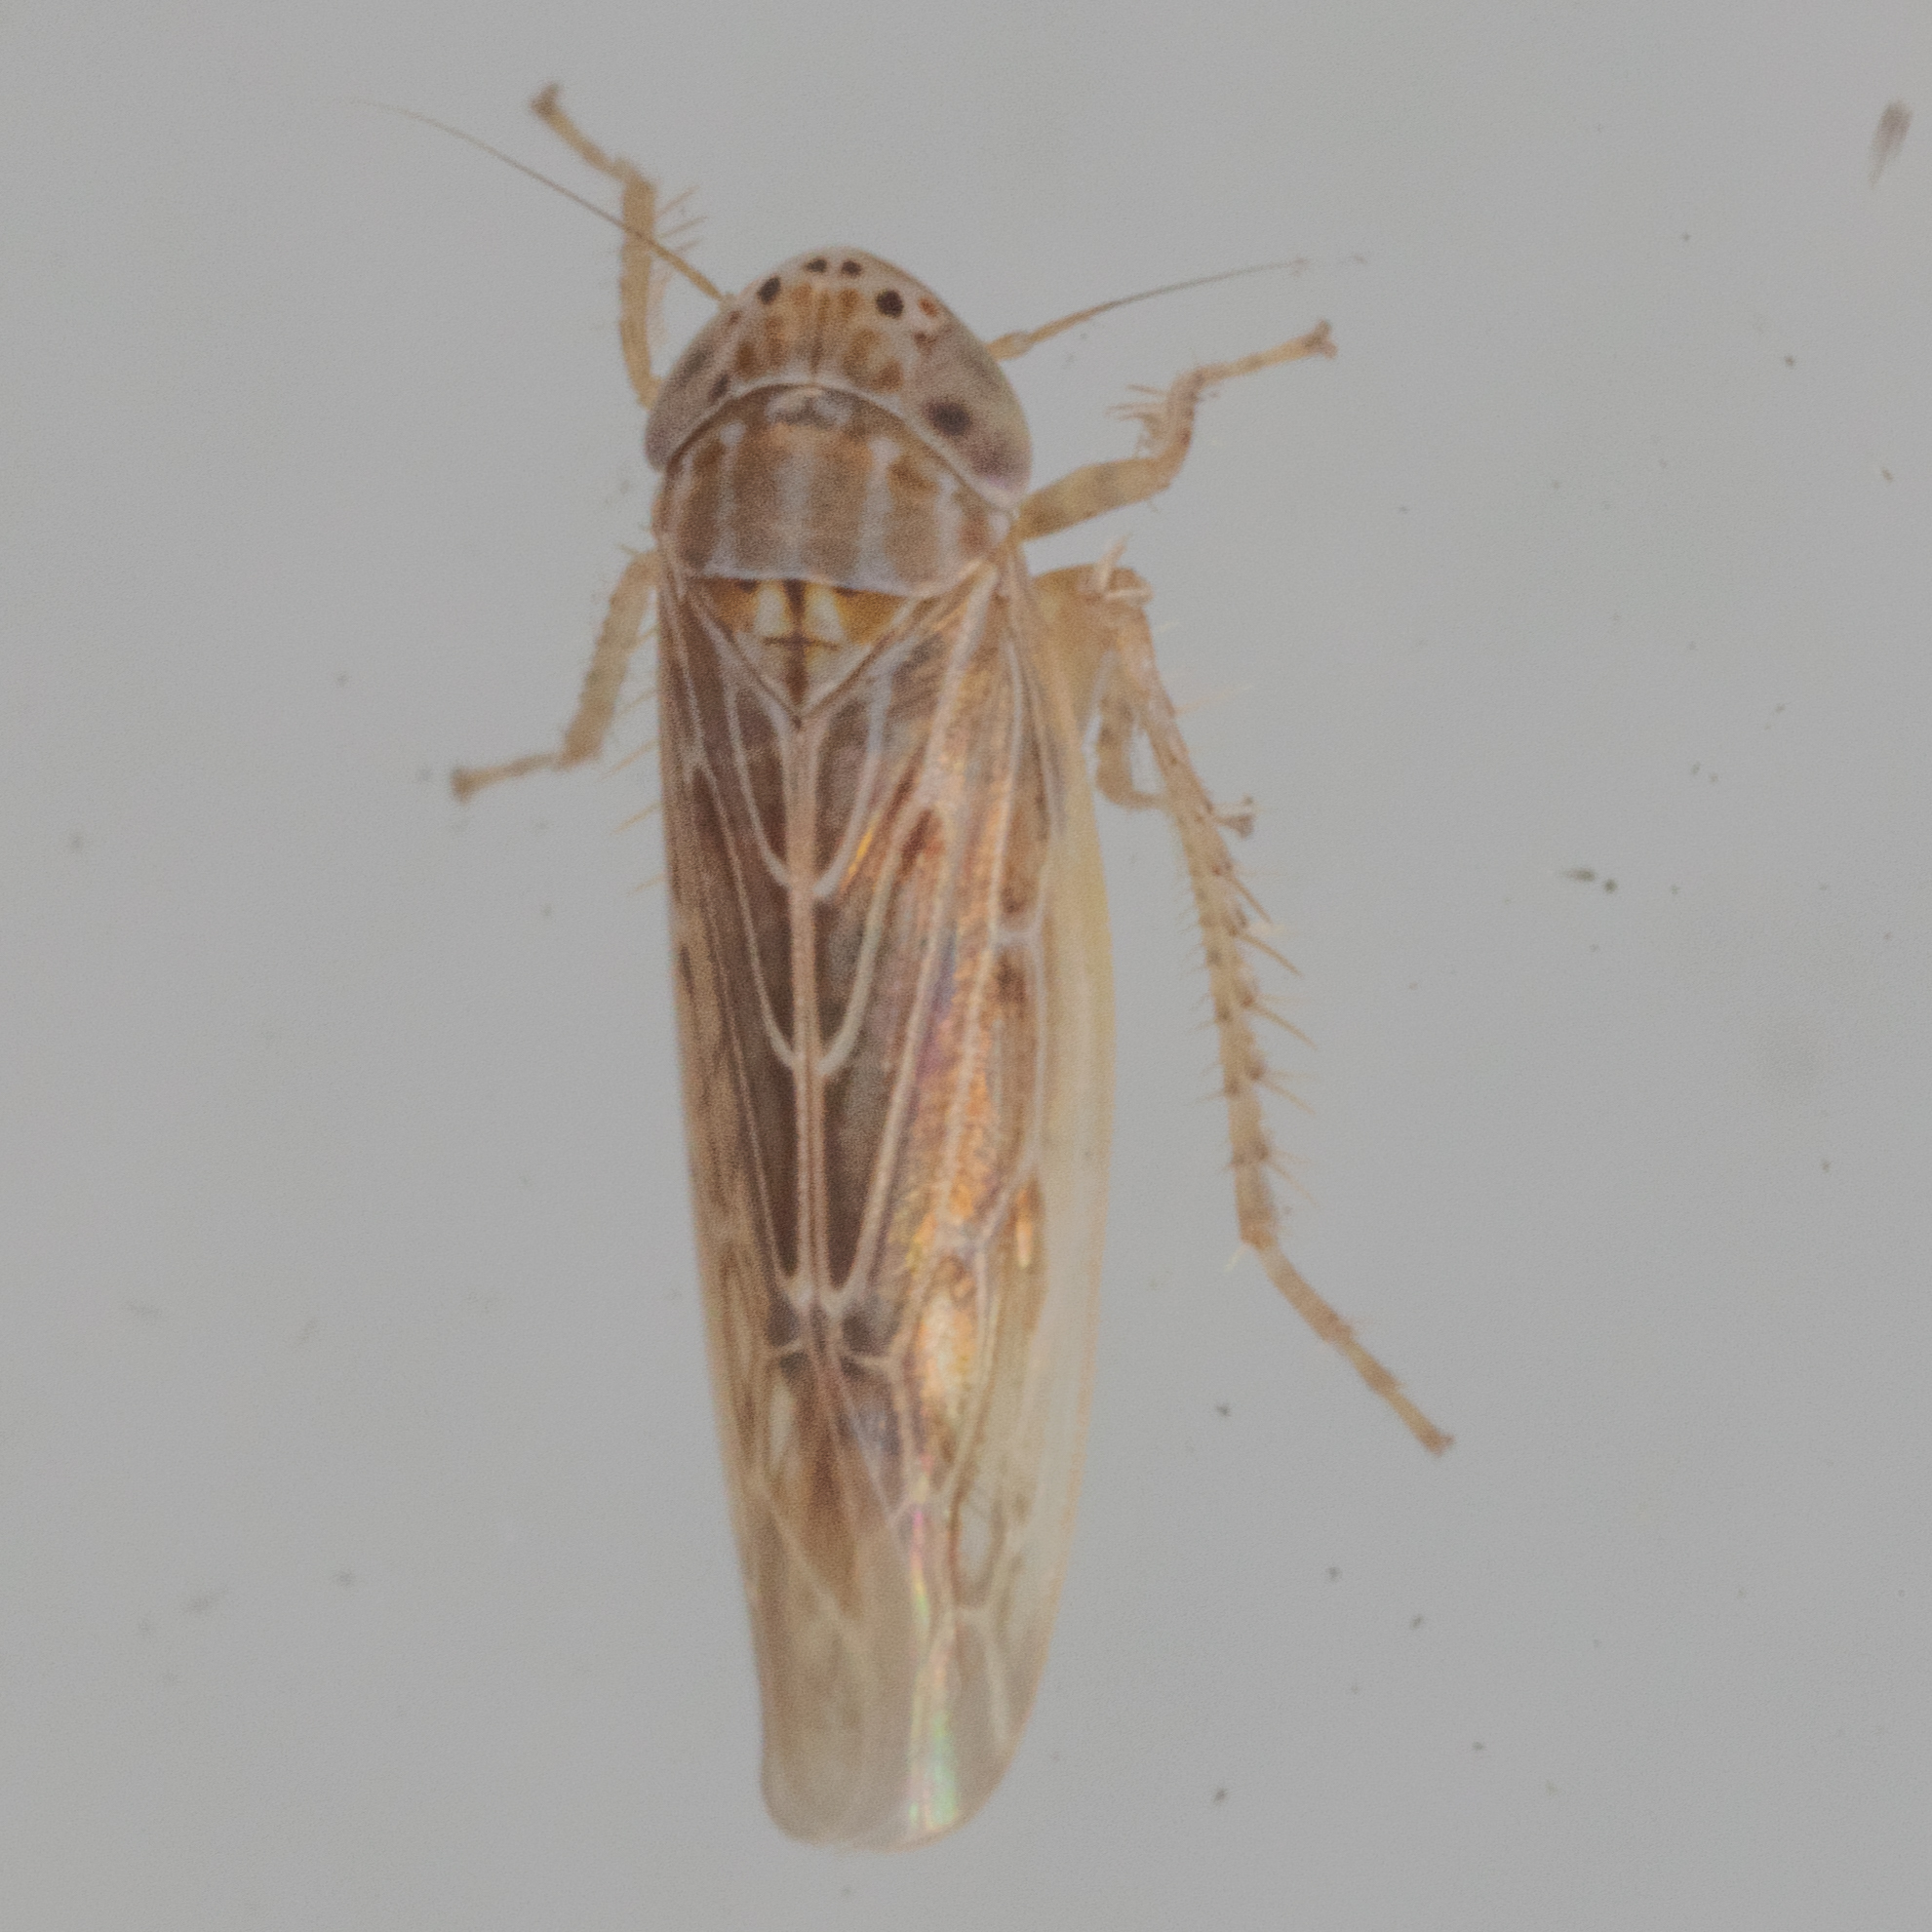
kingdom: Animalia
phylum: Arthropoda
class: Insecta
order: Hemiptera
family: Cicadellidae
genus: Graminella
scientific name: Graminella sonora
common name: Lesser lawn leafhopper
